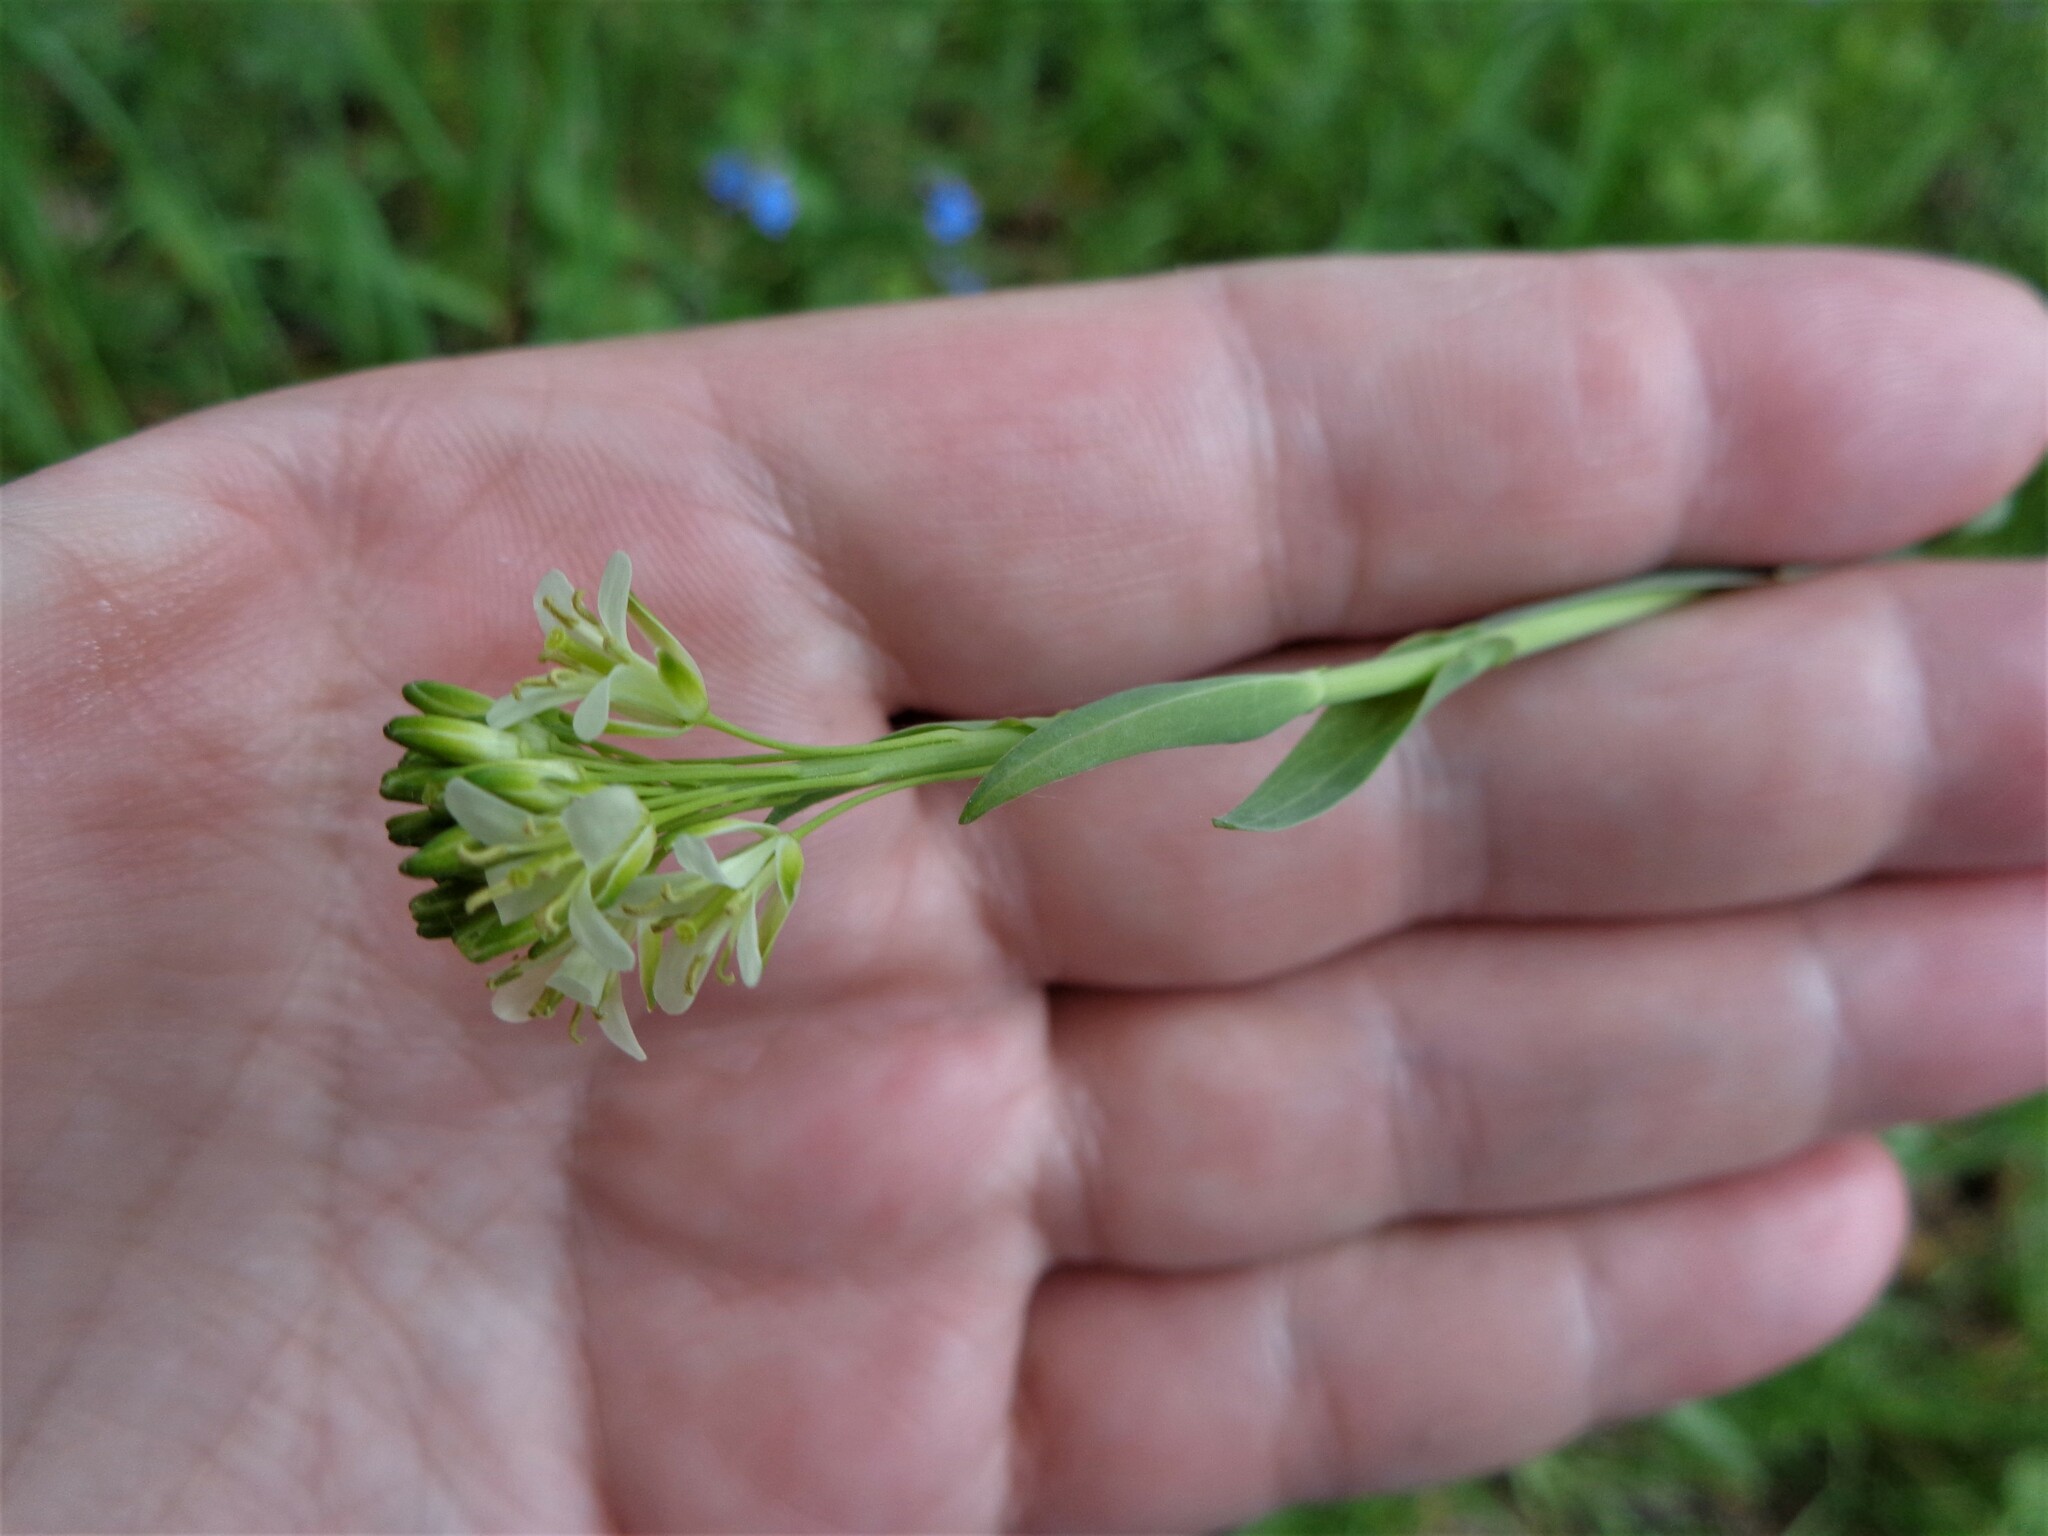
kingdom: Plantae
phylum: Tracheophyta
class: Magnoliopsida
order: Brassicales
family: Brassicaceae
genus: Turritis
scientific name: Turritis glabra
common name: Tower rockcress
